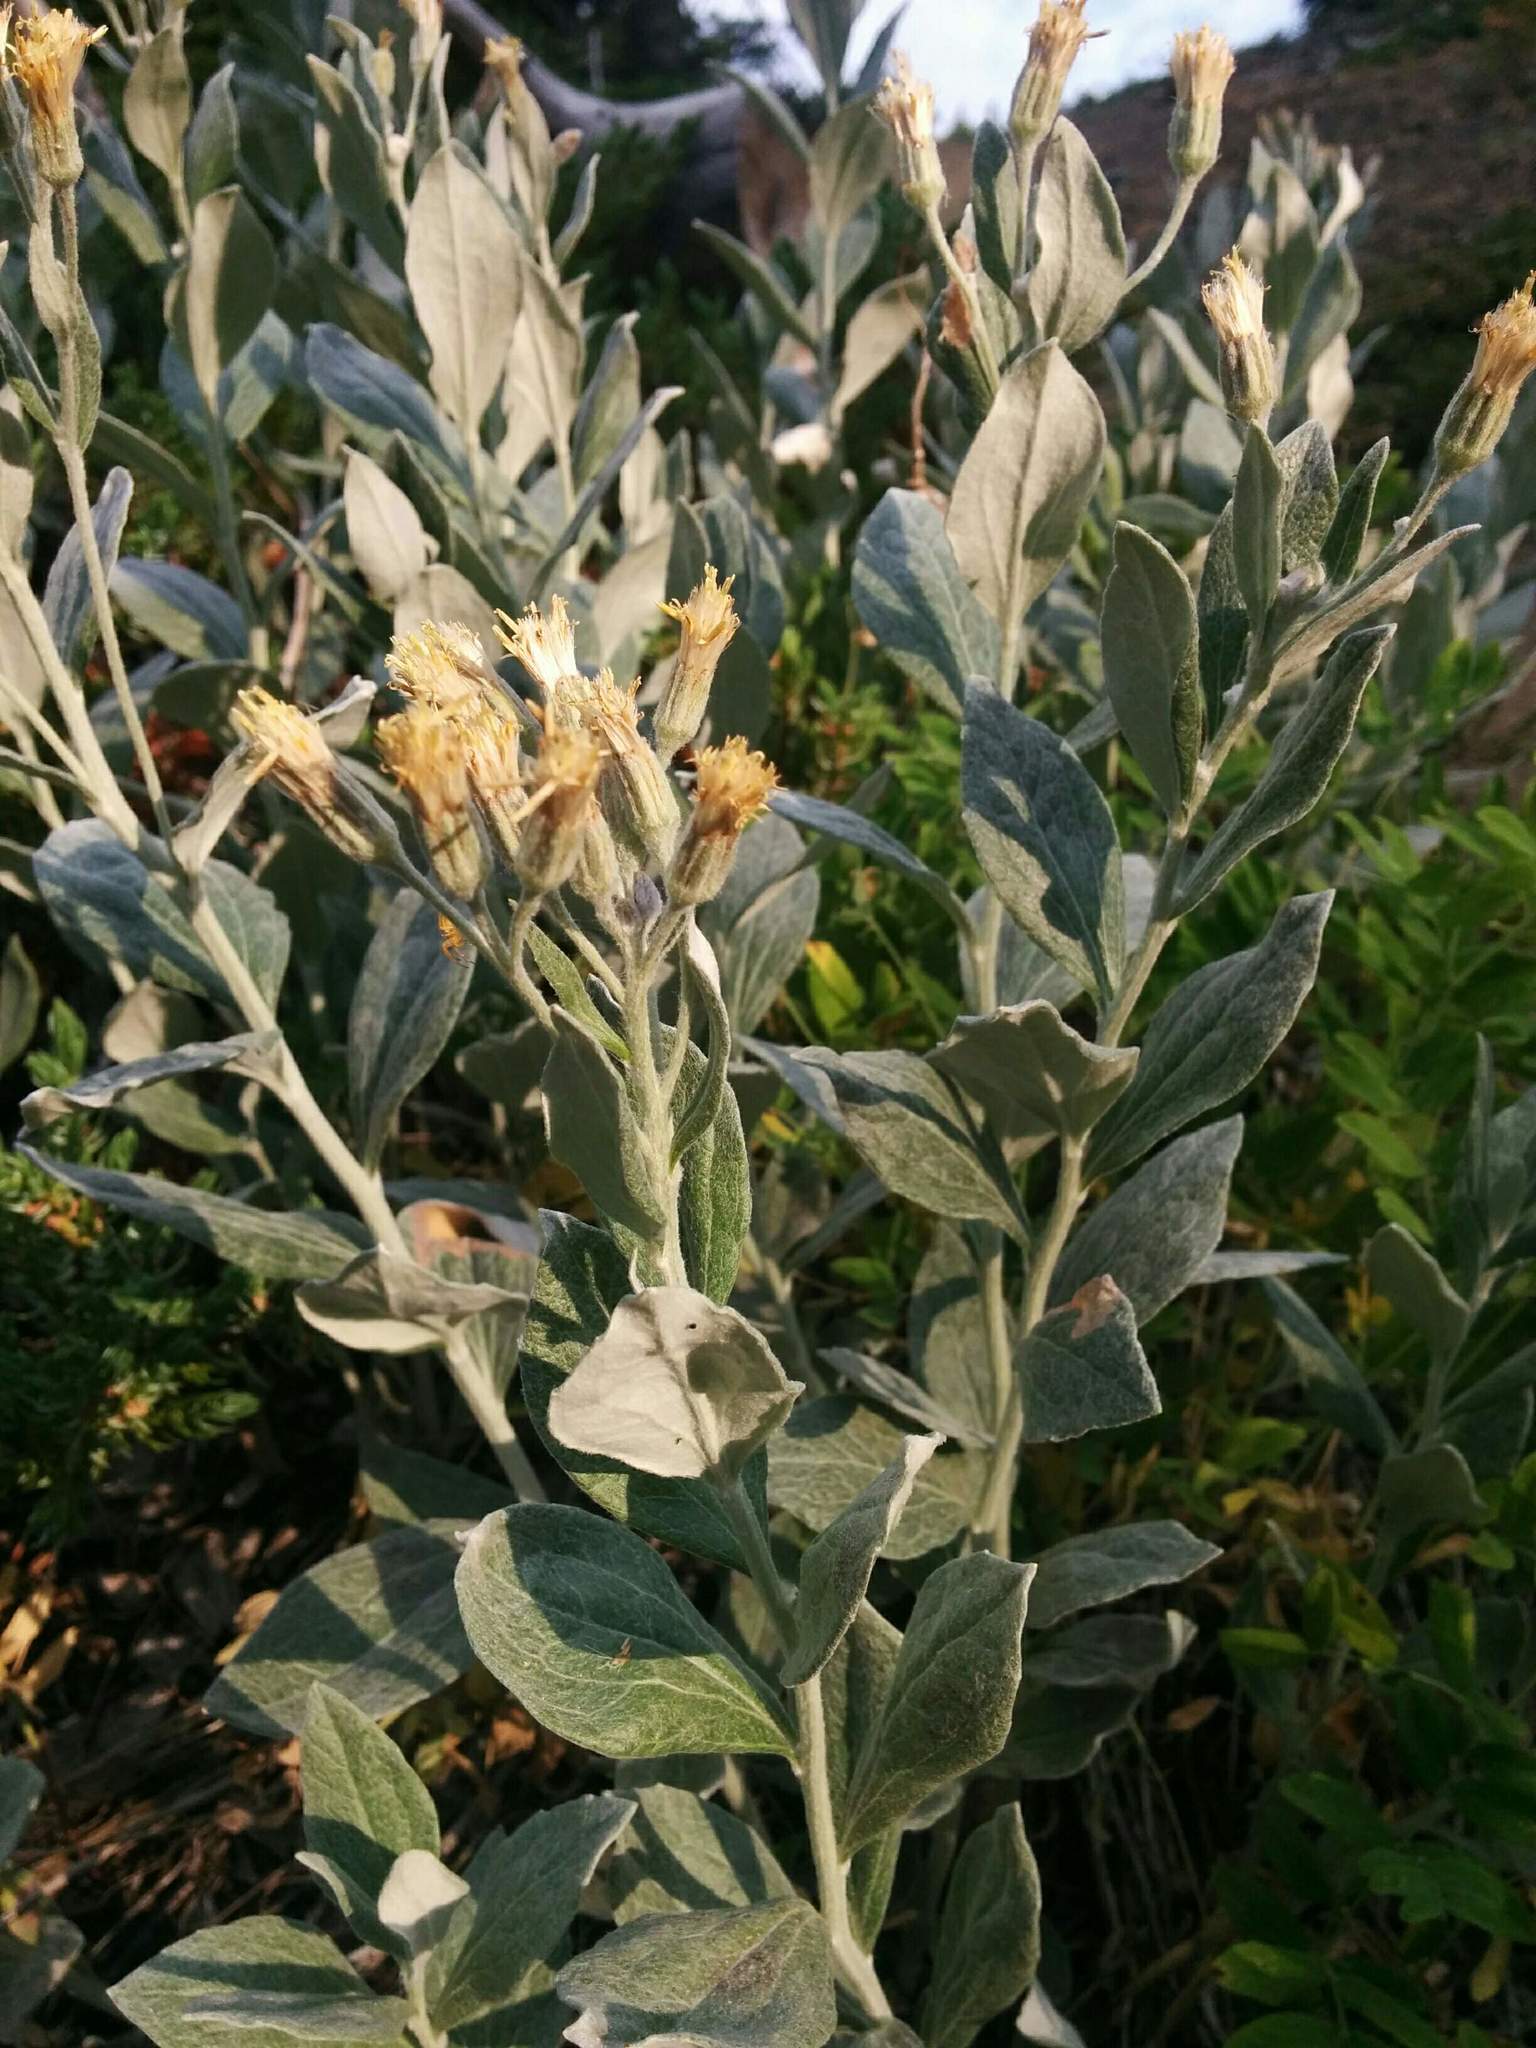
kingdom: Plantae
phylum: Tracheophyta
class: Magnoliopsida
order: Asterales
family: Asteraceae
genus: Luina
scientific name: Luina hypoleuca
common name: Little-leaved luina
